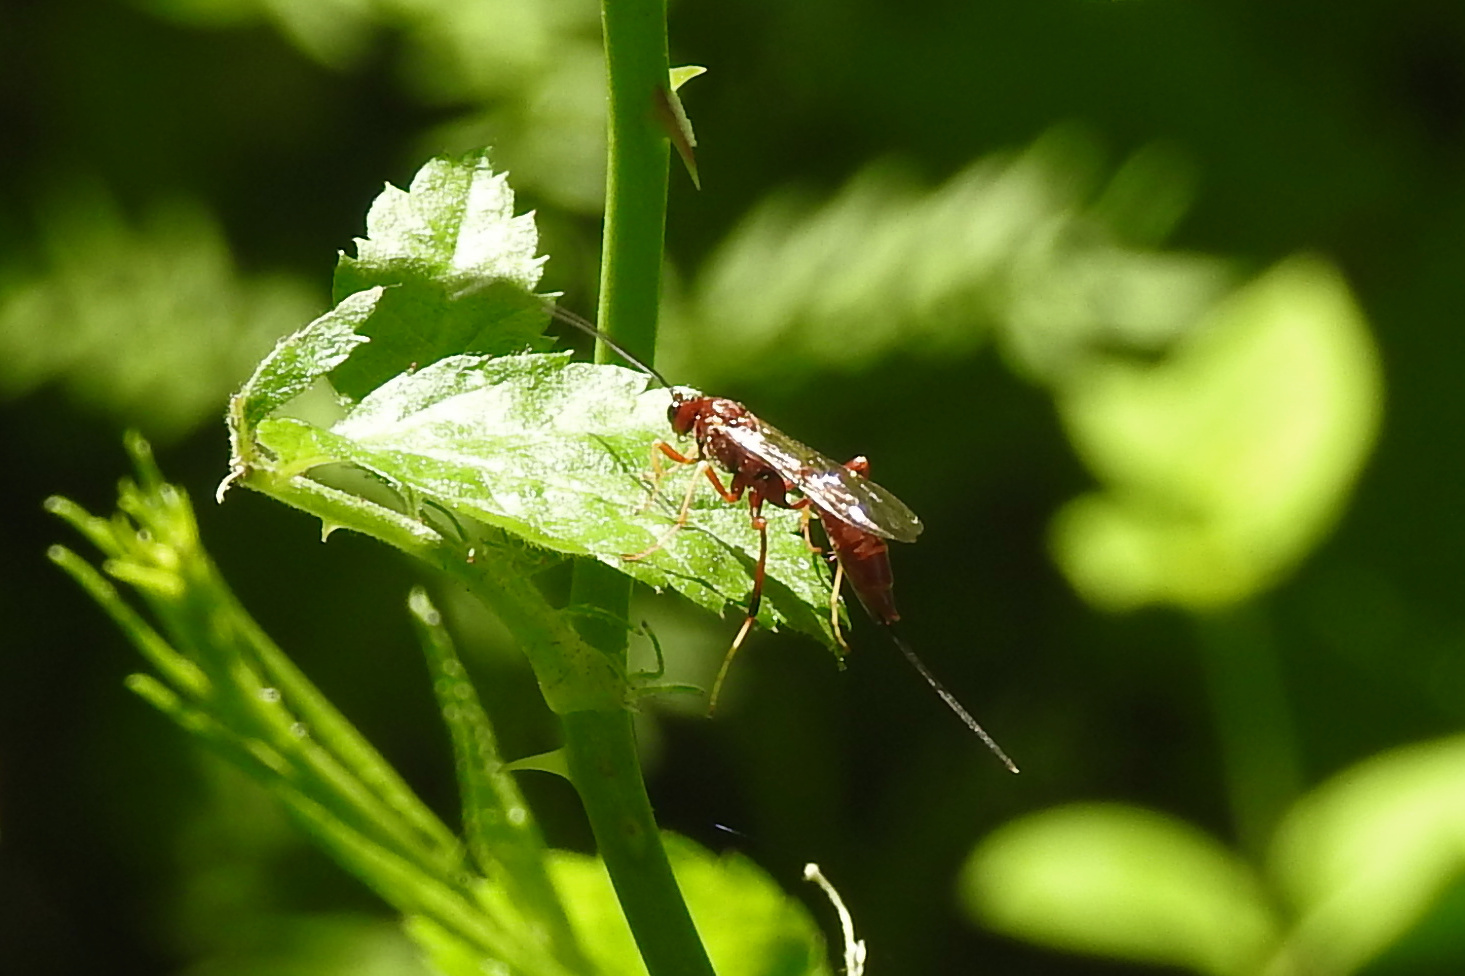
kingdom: Animalia
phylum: Arthropoda
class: Insecta
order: Hymenoptera
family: Ichneumonidae
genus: Coleocentrus
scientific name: Coleocentrus rufus
